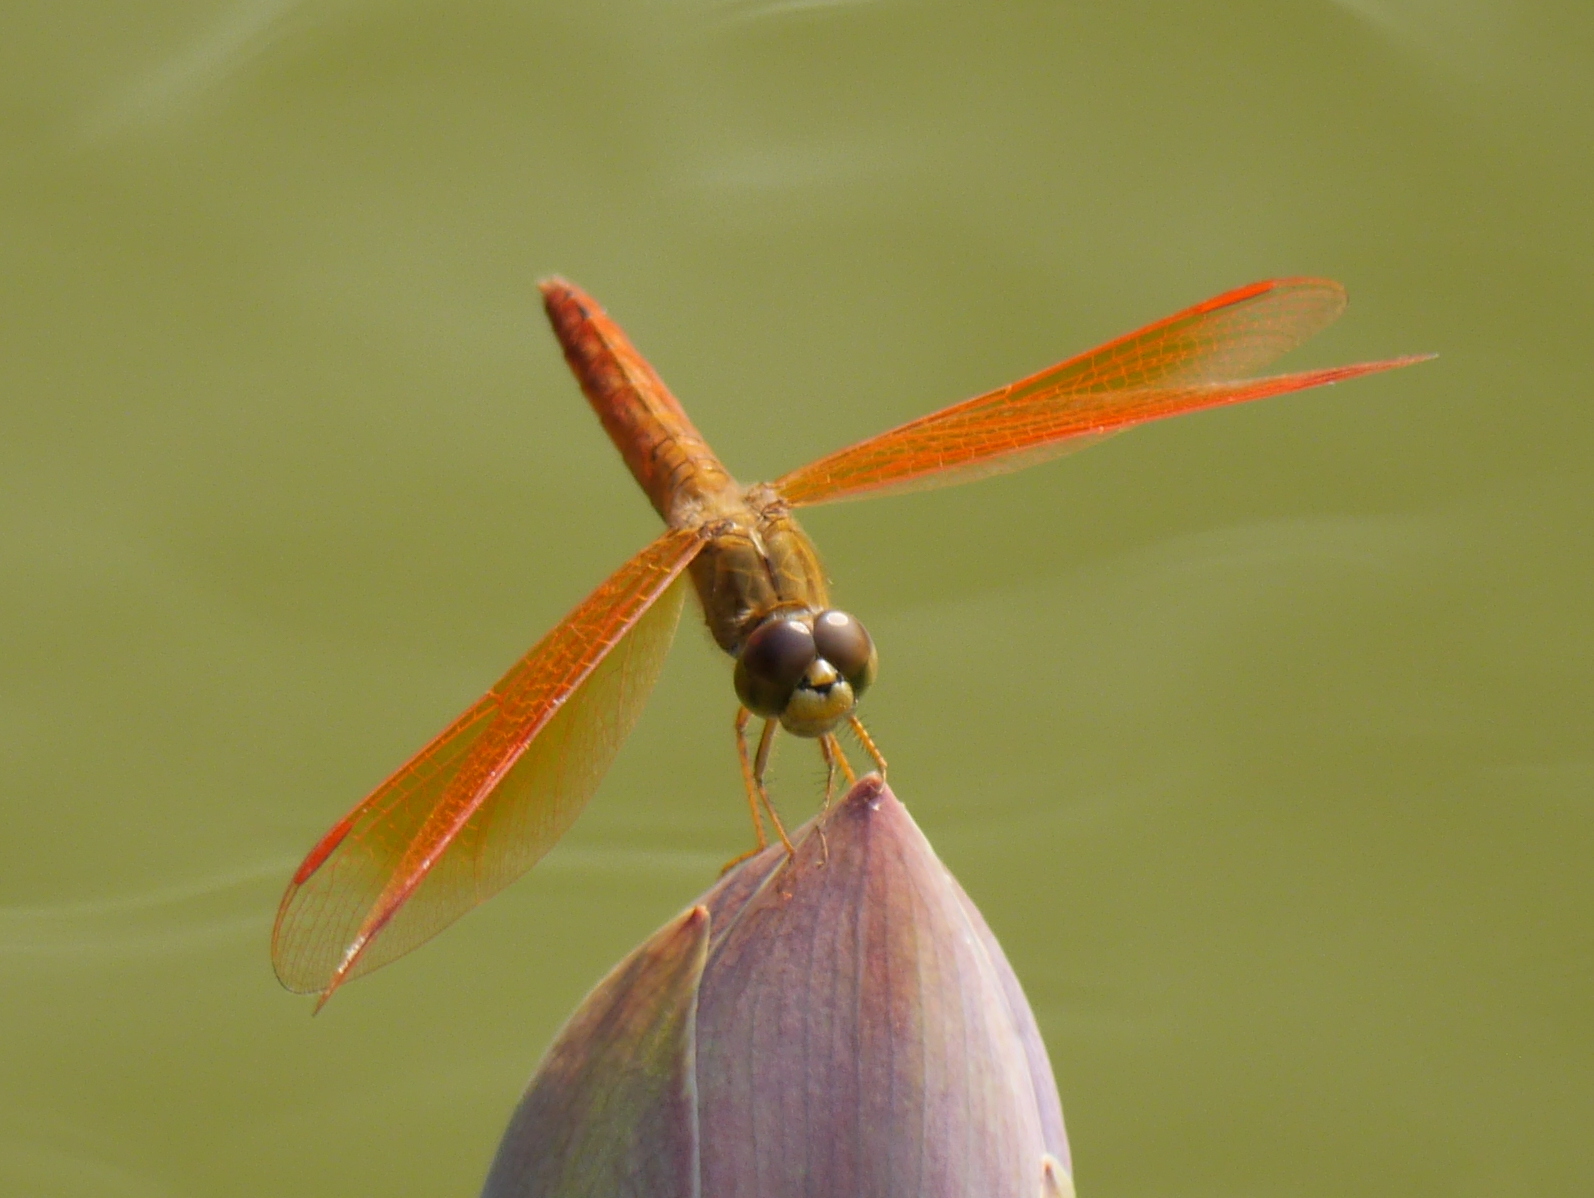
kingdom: Animalia
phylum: Arthropoda
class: Insecta
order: Odonata
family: Libellulidae
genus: Brachythemis
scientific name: Brachythemis contaminata
